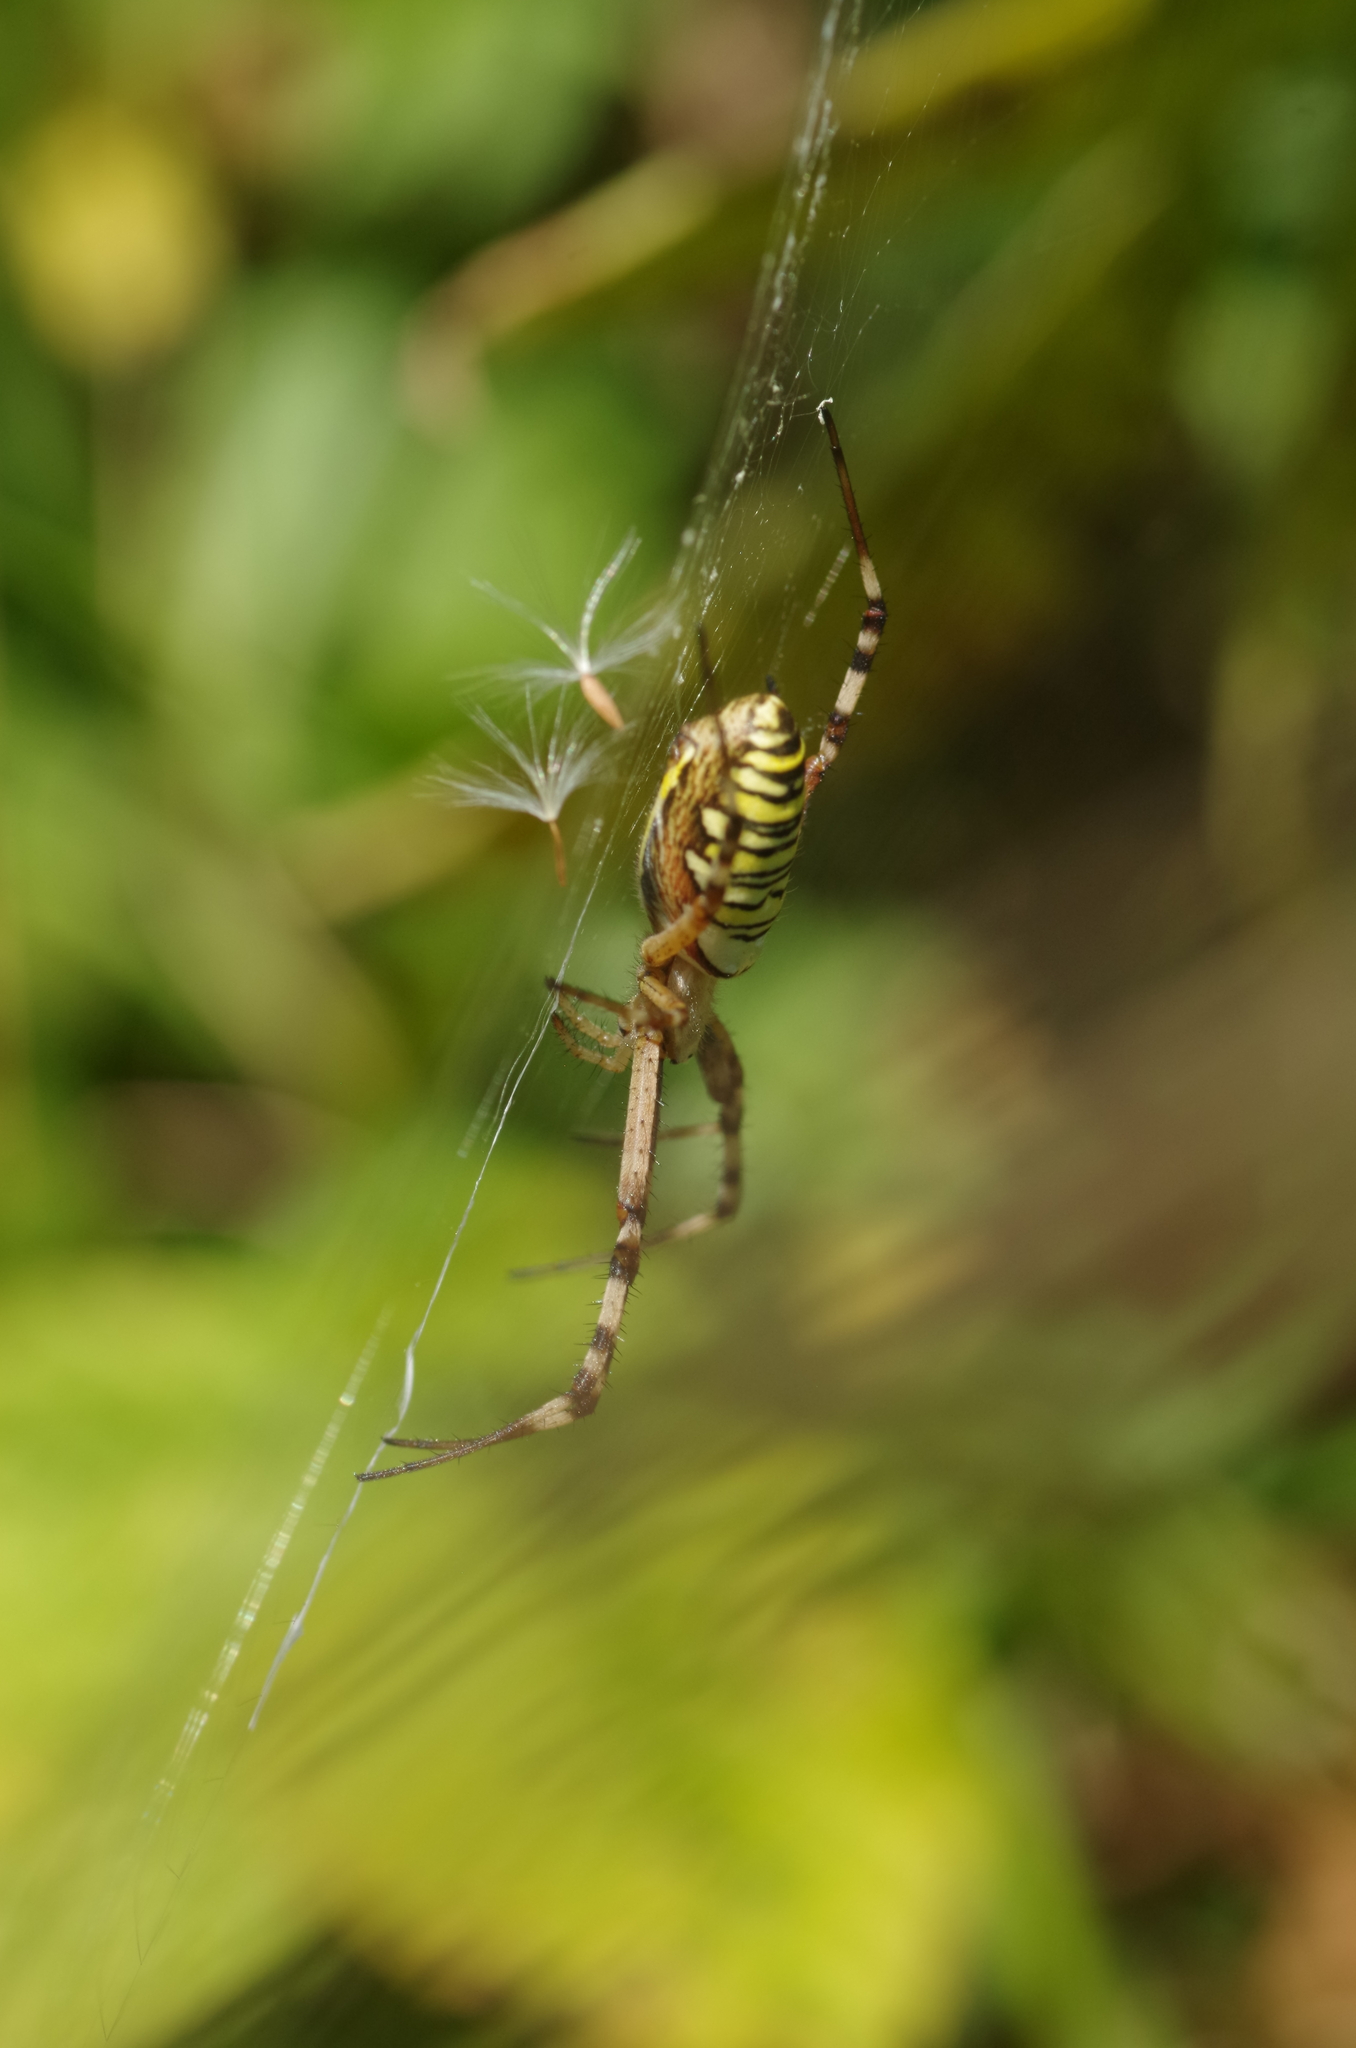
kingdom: Animalia
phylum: Arthropoda
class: Arachnida
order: Araneae
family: Araneidae
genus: Argiope
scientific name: Argiope bruennichi
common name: Wasp spider
